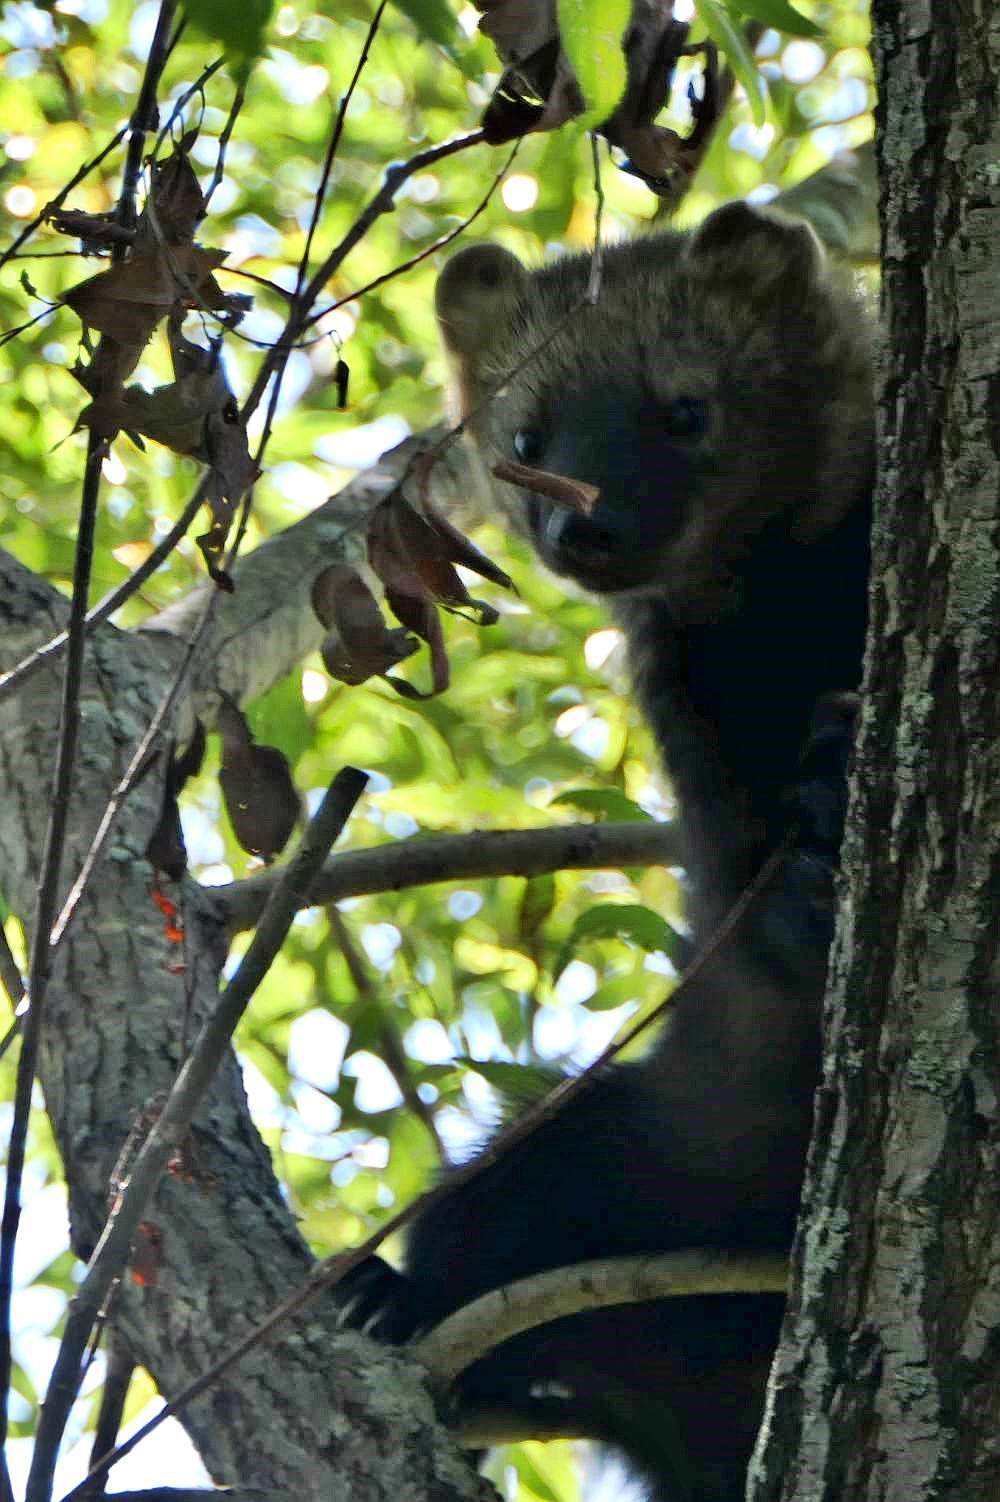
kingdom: Animalia
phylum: Chordata
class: Mammalia
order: Carnivora
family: Mustelidae
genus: Pekania
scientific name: Pekania pennanti
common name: Fisher
